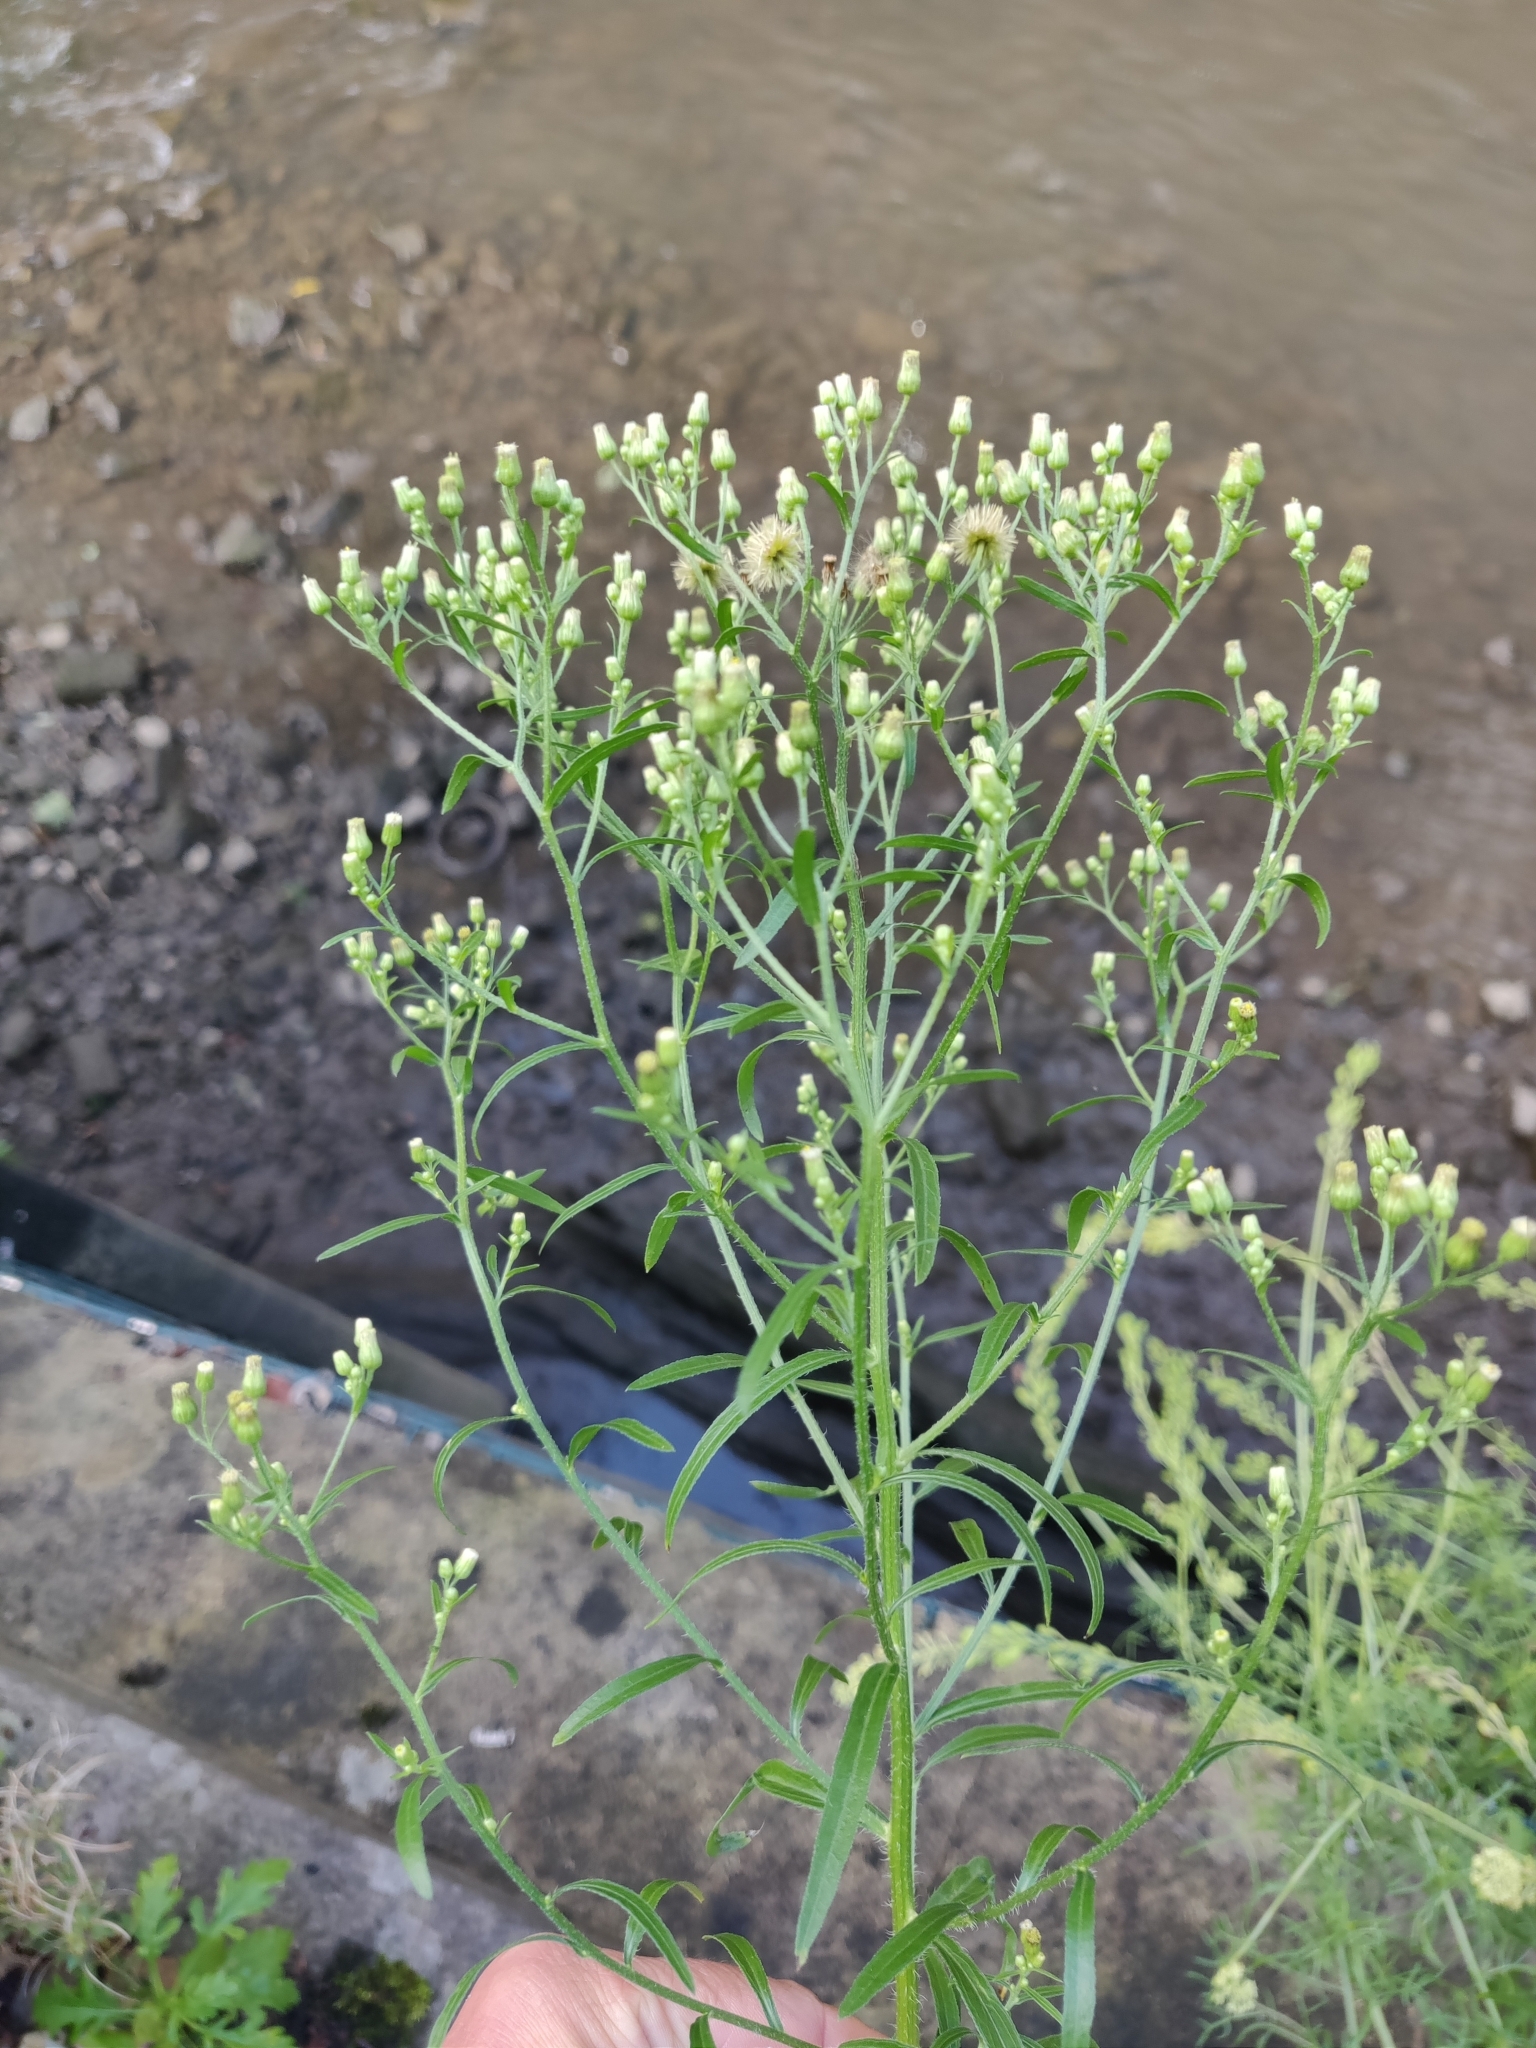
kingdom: Plantae
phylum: Tracheophyta
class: Magnoliopsida
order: Asterales
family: Asteraceae
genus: Erigeron
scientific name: Erigeron floribundus
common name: Bilbao fleabane
